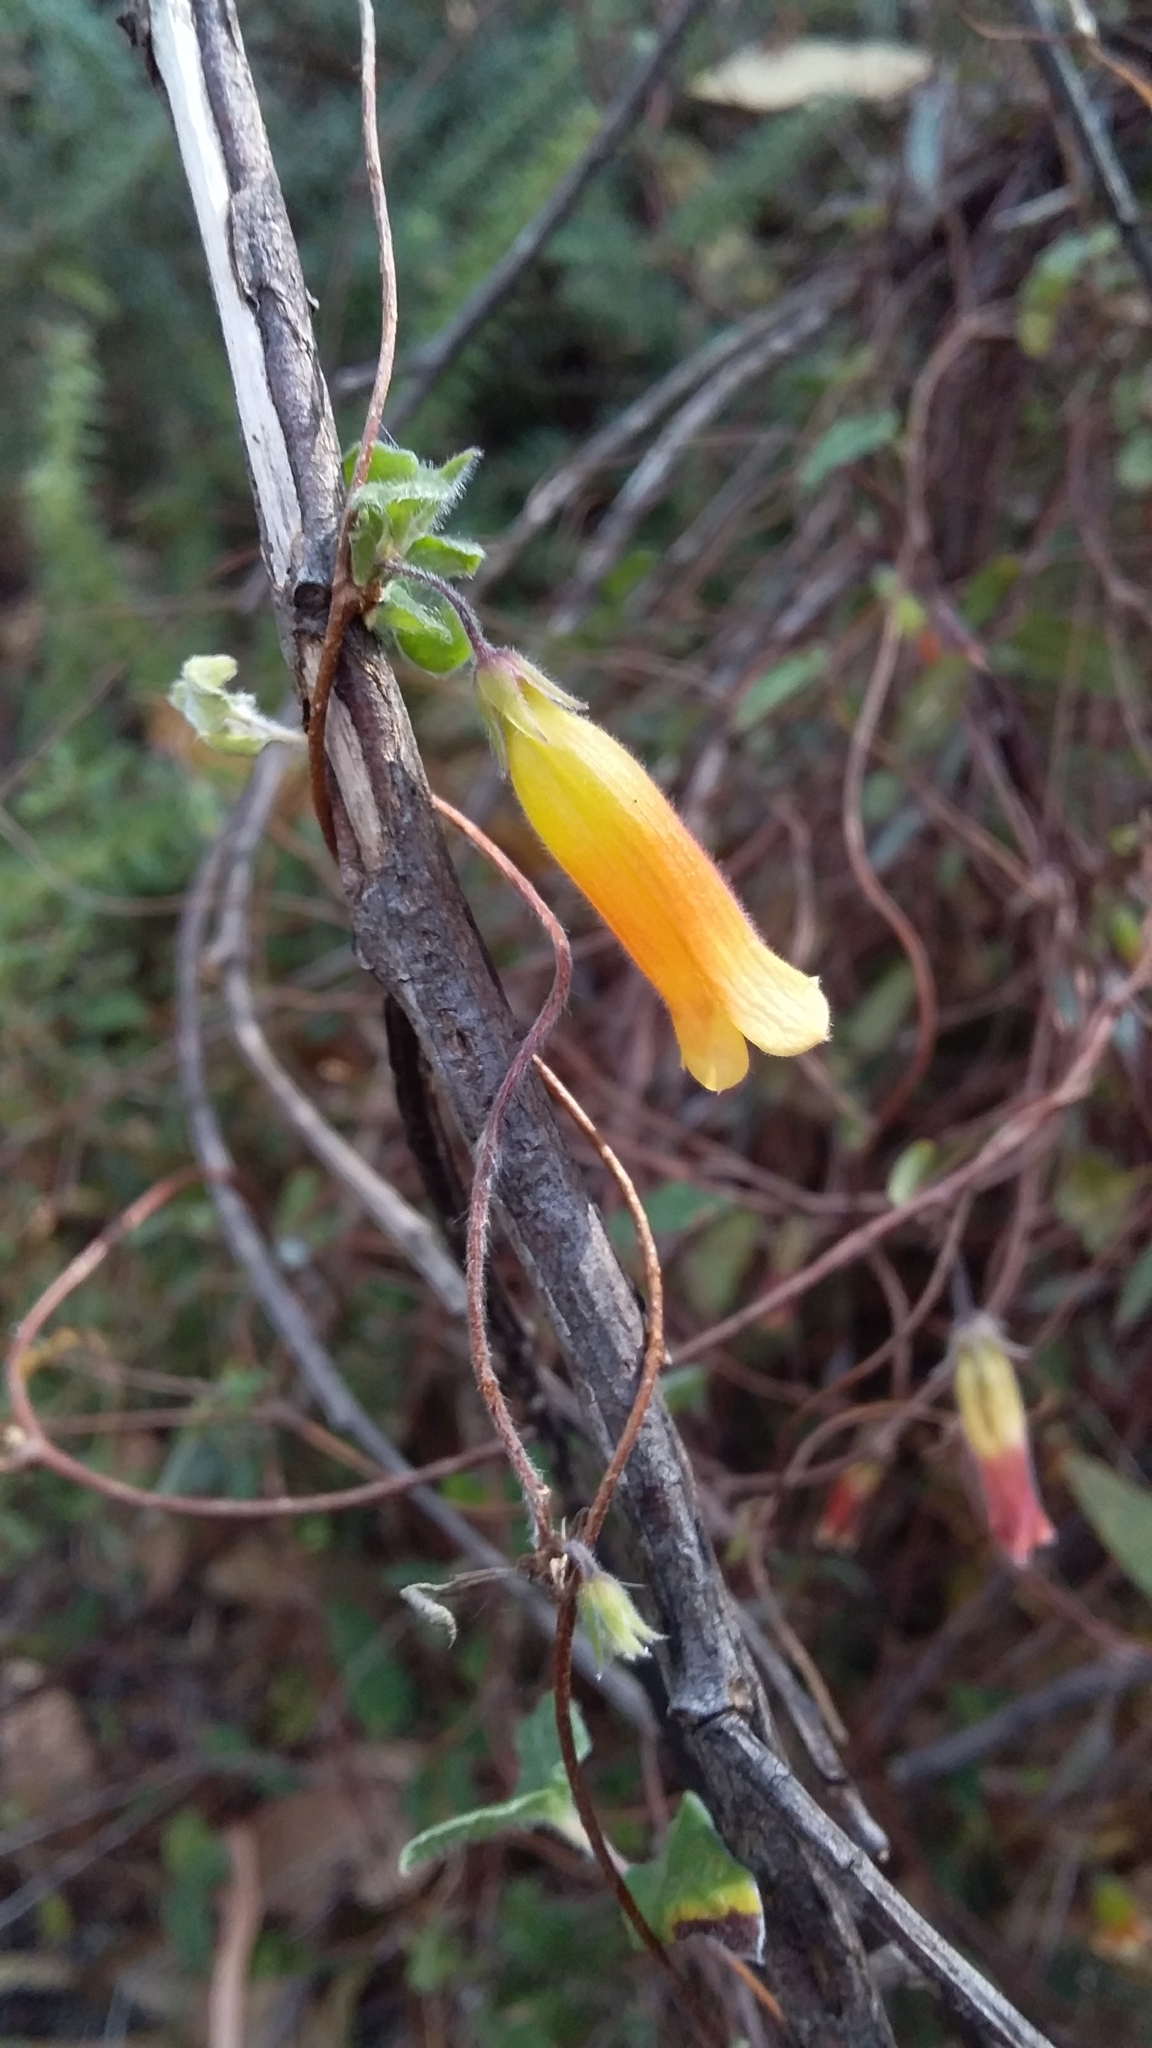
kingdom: Plantae
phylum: Tracheophyta
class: Magnoliopsida
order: Apiales
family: Pittosporaceae
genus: Marianthus
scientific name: Marianthus bignoniaceus
